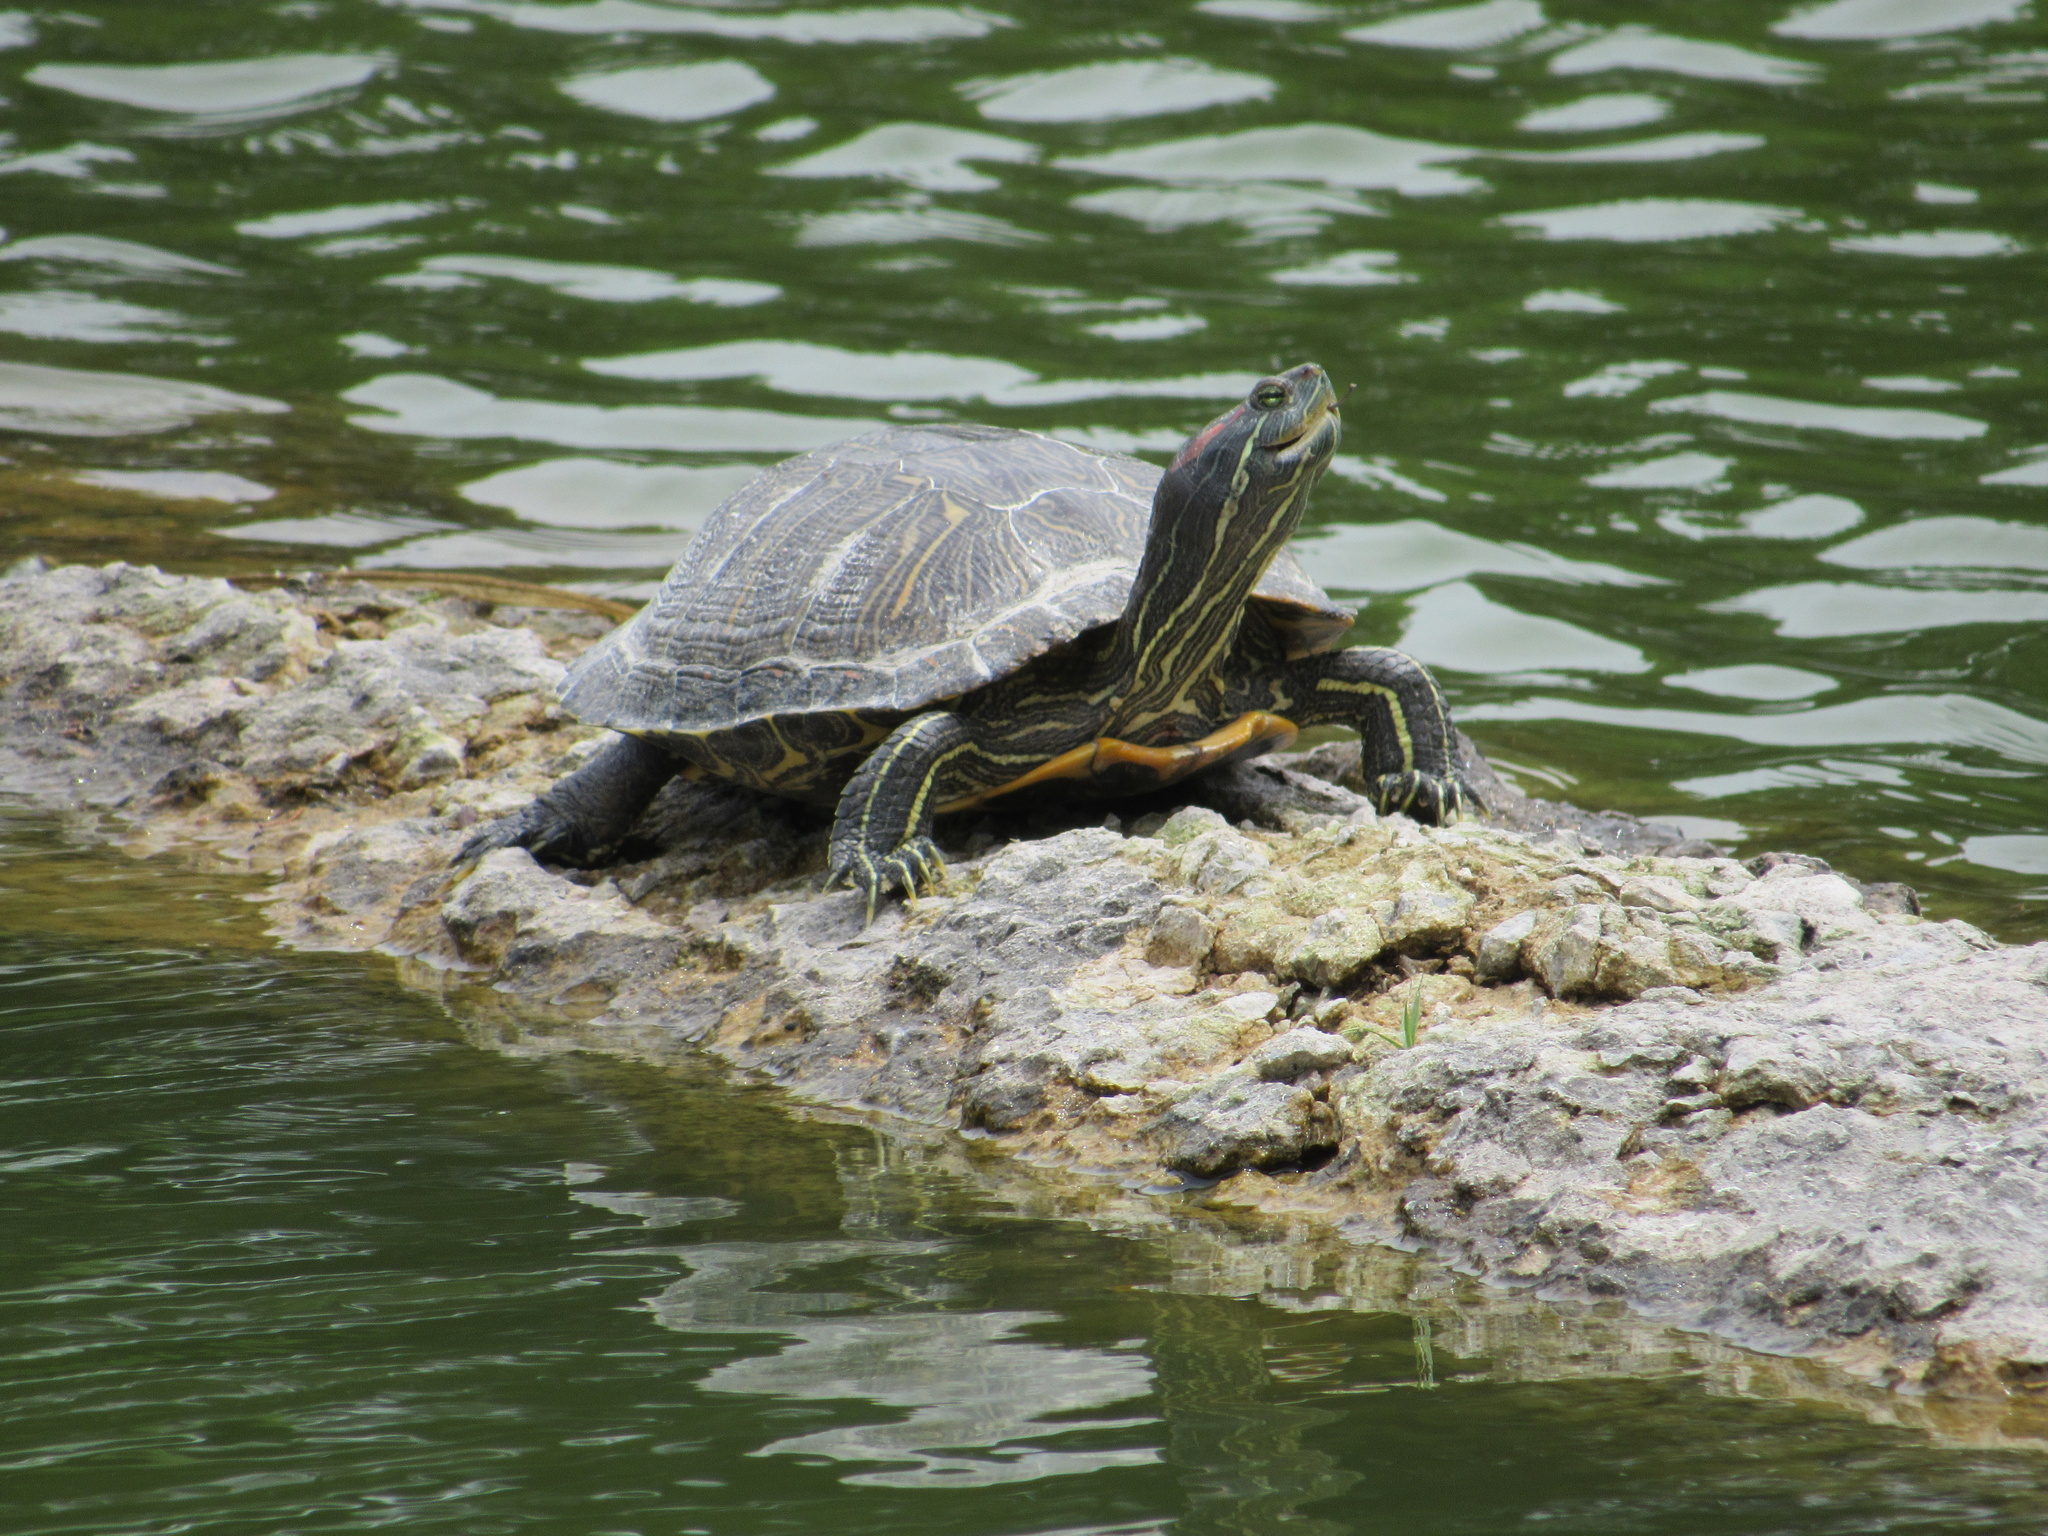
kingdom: Animalia
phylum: Chordata
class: Testudines
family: Emydidae
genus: Trachemys
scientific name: Trachemys scripta
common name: Slider
